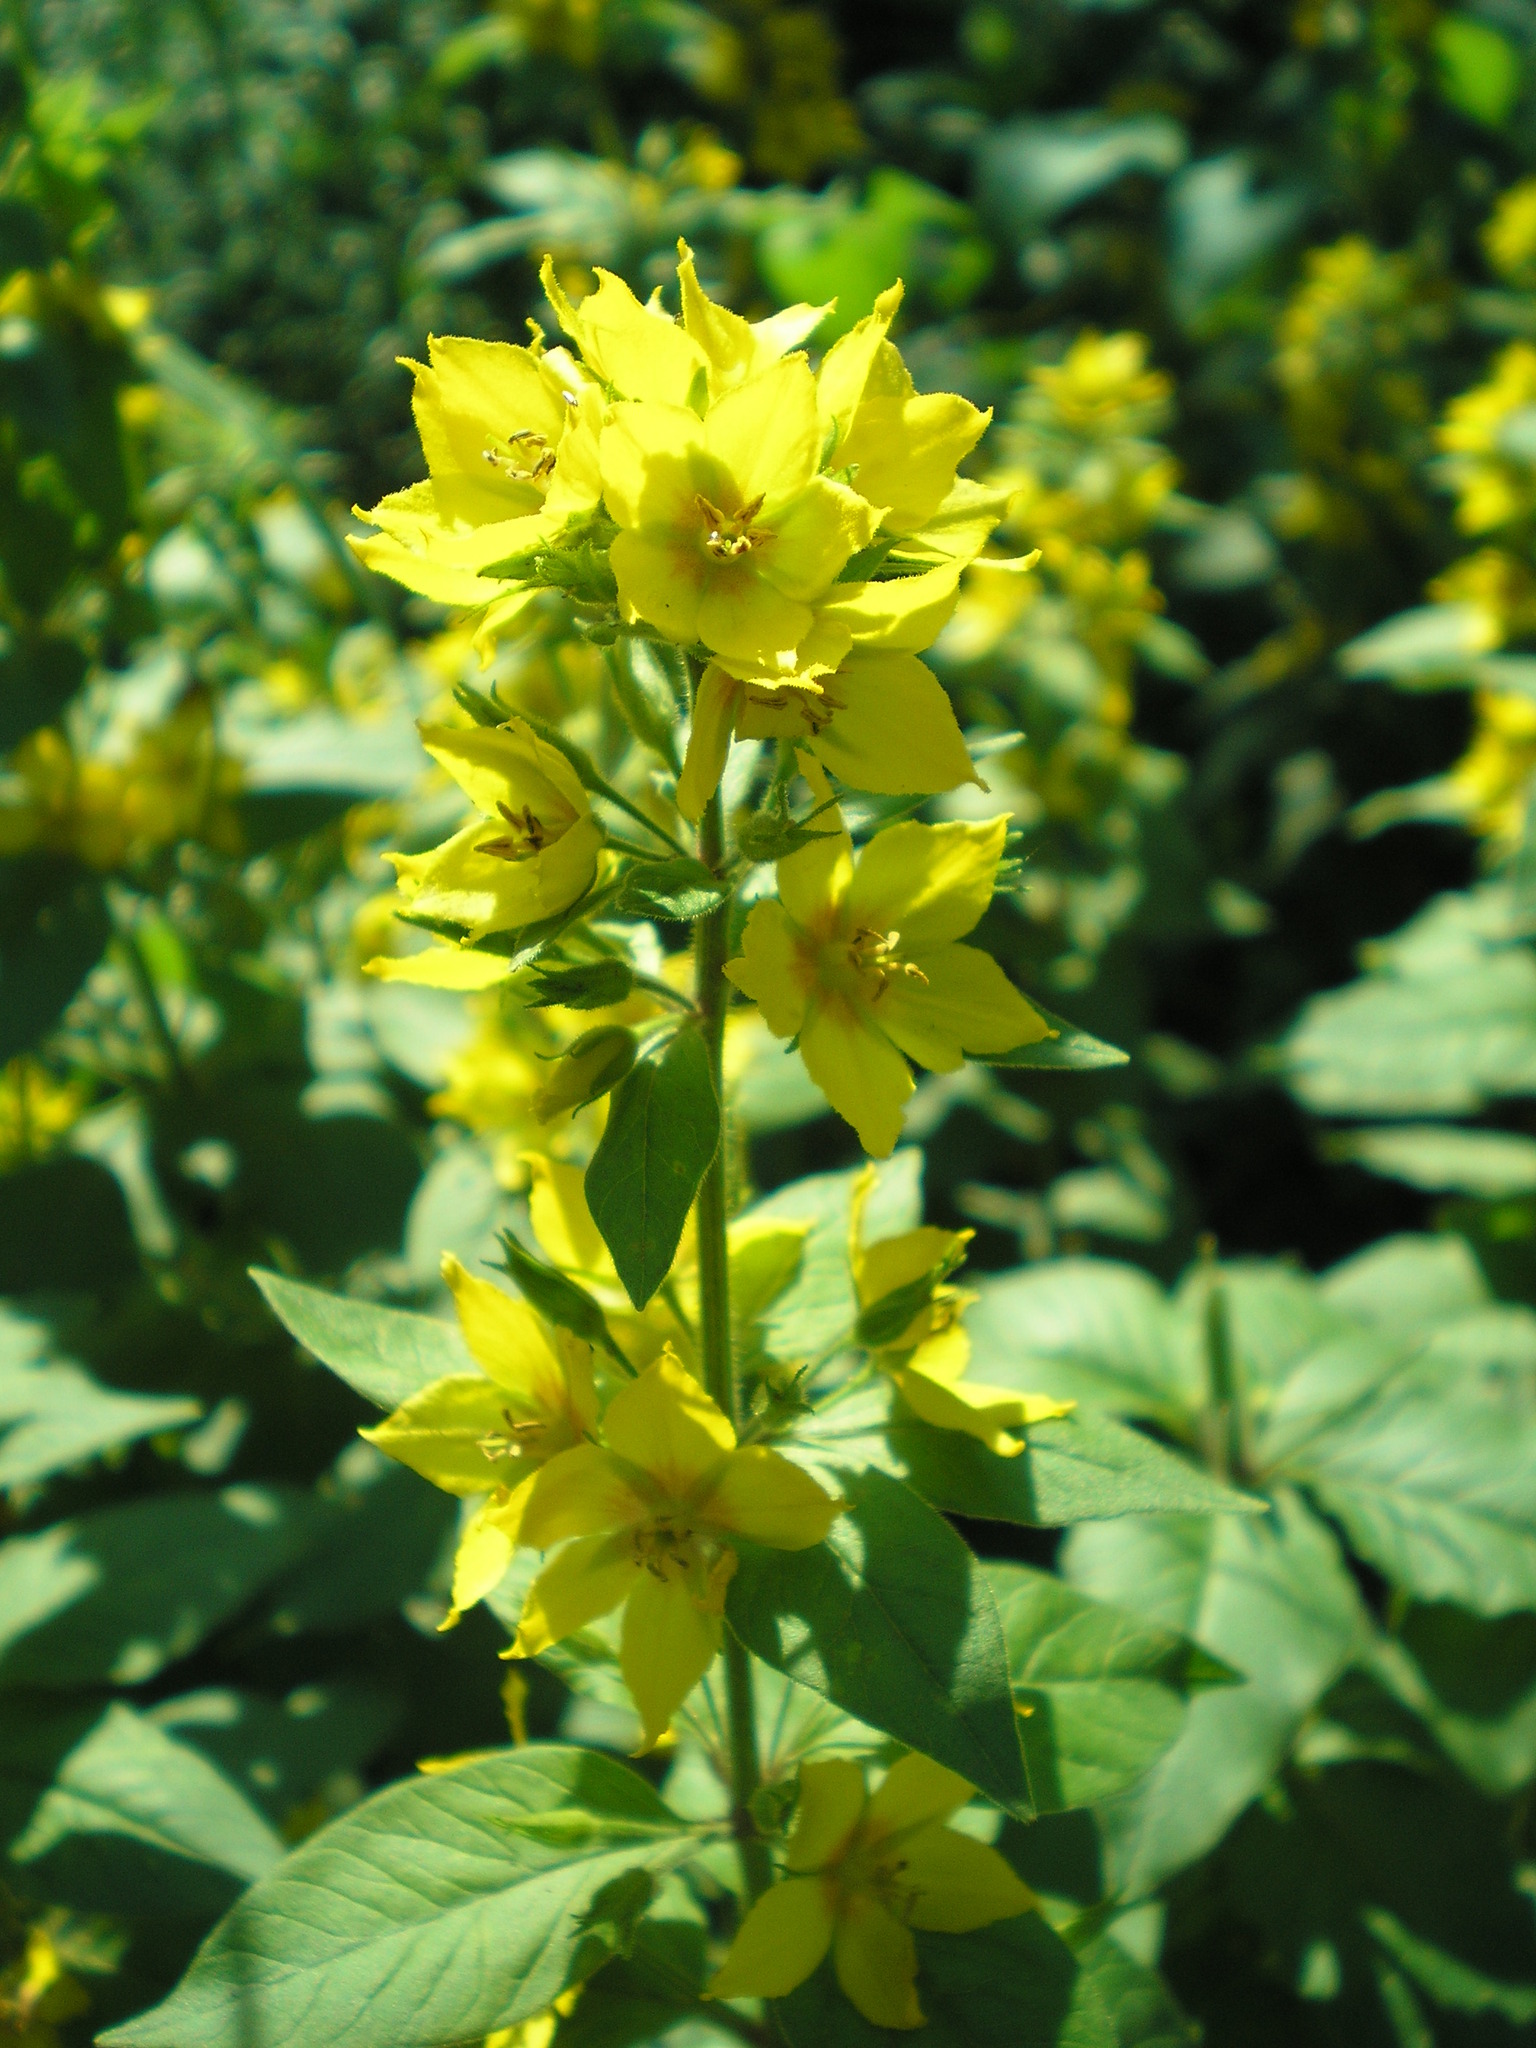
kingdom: Plantae
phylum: Tracheophyta
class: Magnoliopsida
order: Ericales
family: Primulaceae
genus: Lysimachia
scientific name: Lysimachia punctata
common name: Dotted loosestrife
